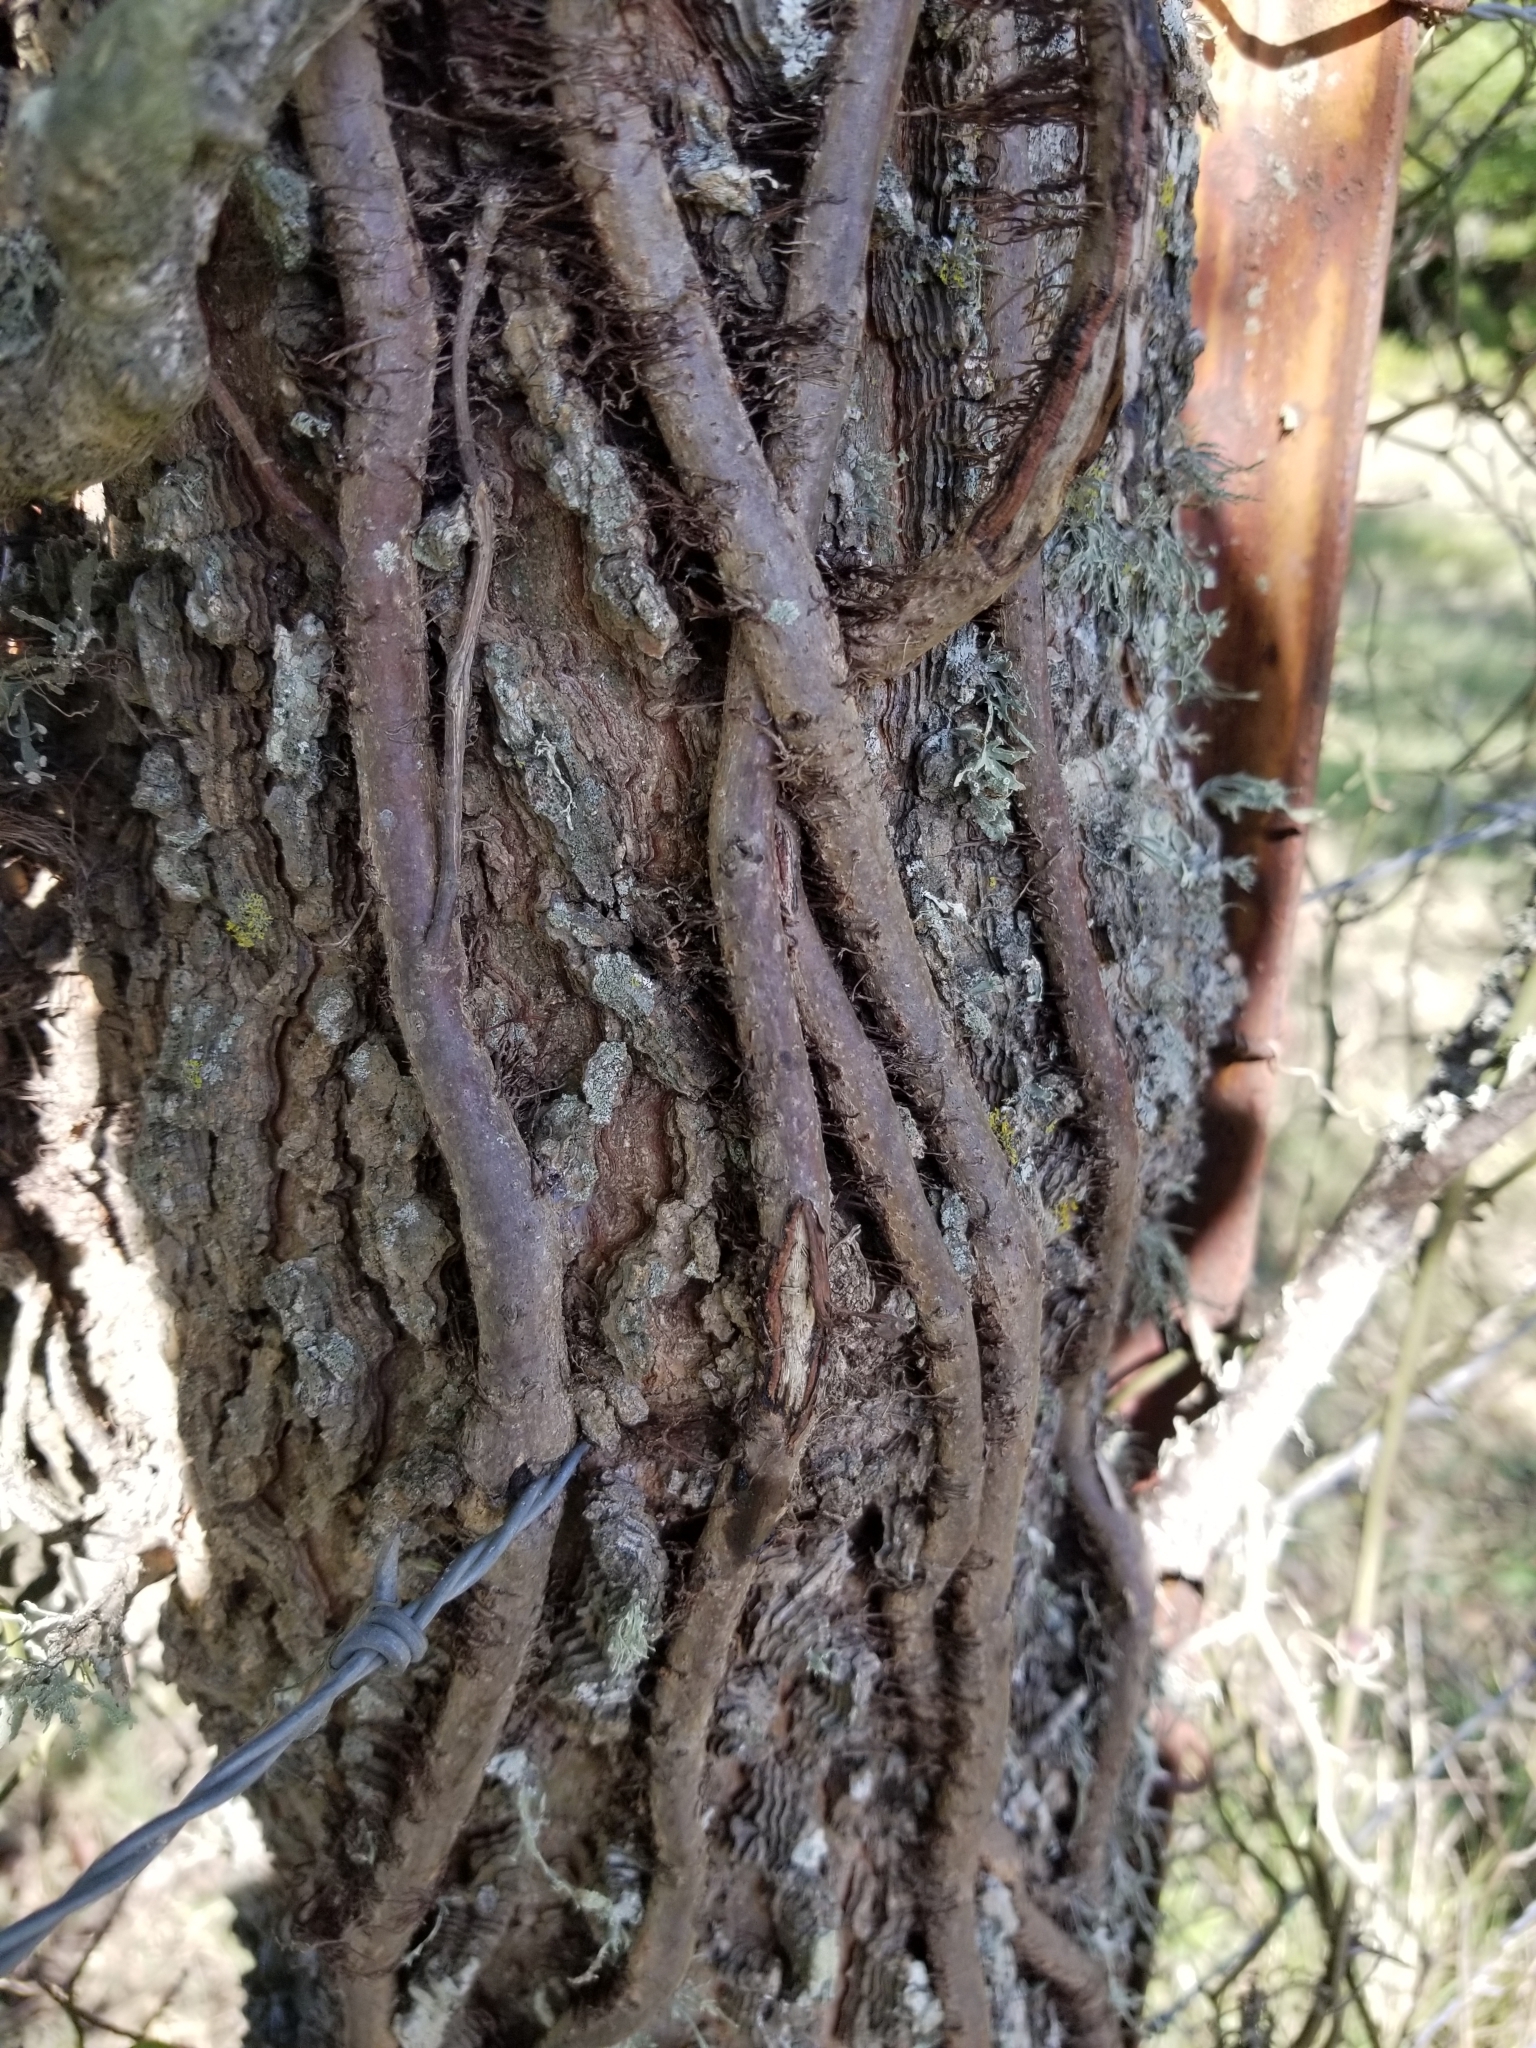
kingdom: Plantae
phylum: Tracheophyta
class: Magnoliopsida
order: Rosales
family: Cannabaceae
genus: Celtis
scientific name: Celtis laevigata
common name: Sugarberry
